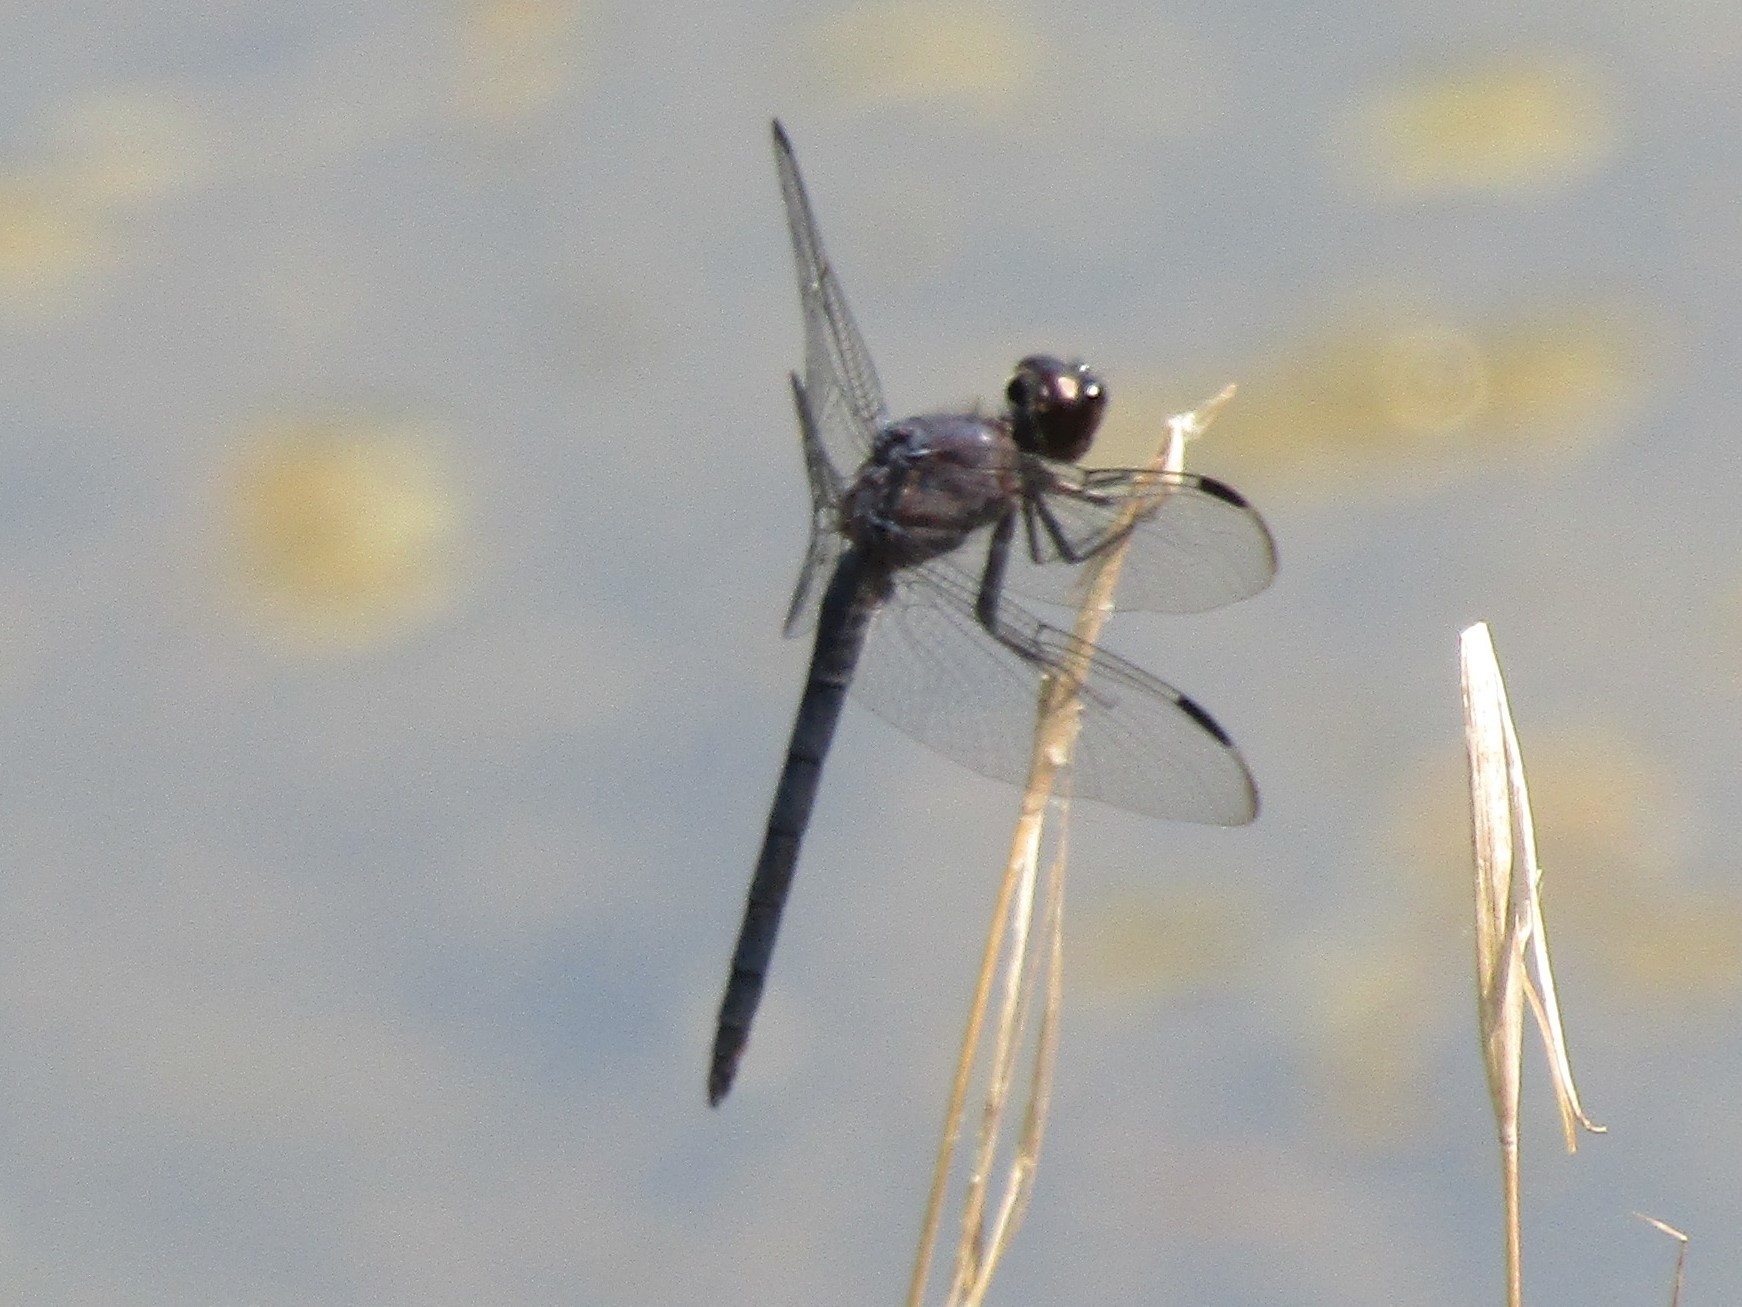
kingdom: Animalia
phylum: Arthropoda
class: Insecta
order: Odonata
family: Libellulidae
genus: Libellula
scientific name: Libellula incesta
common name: Slaty skimmer
